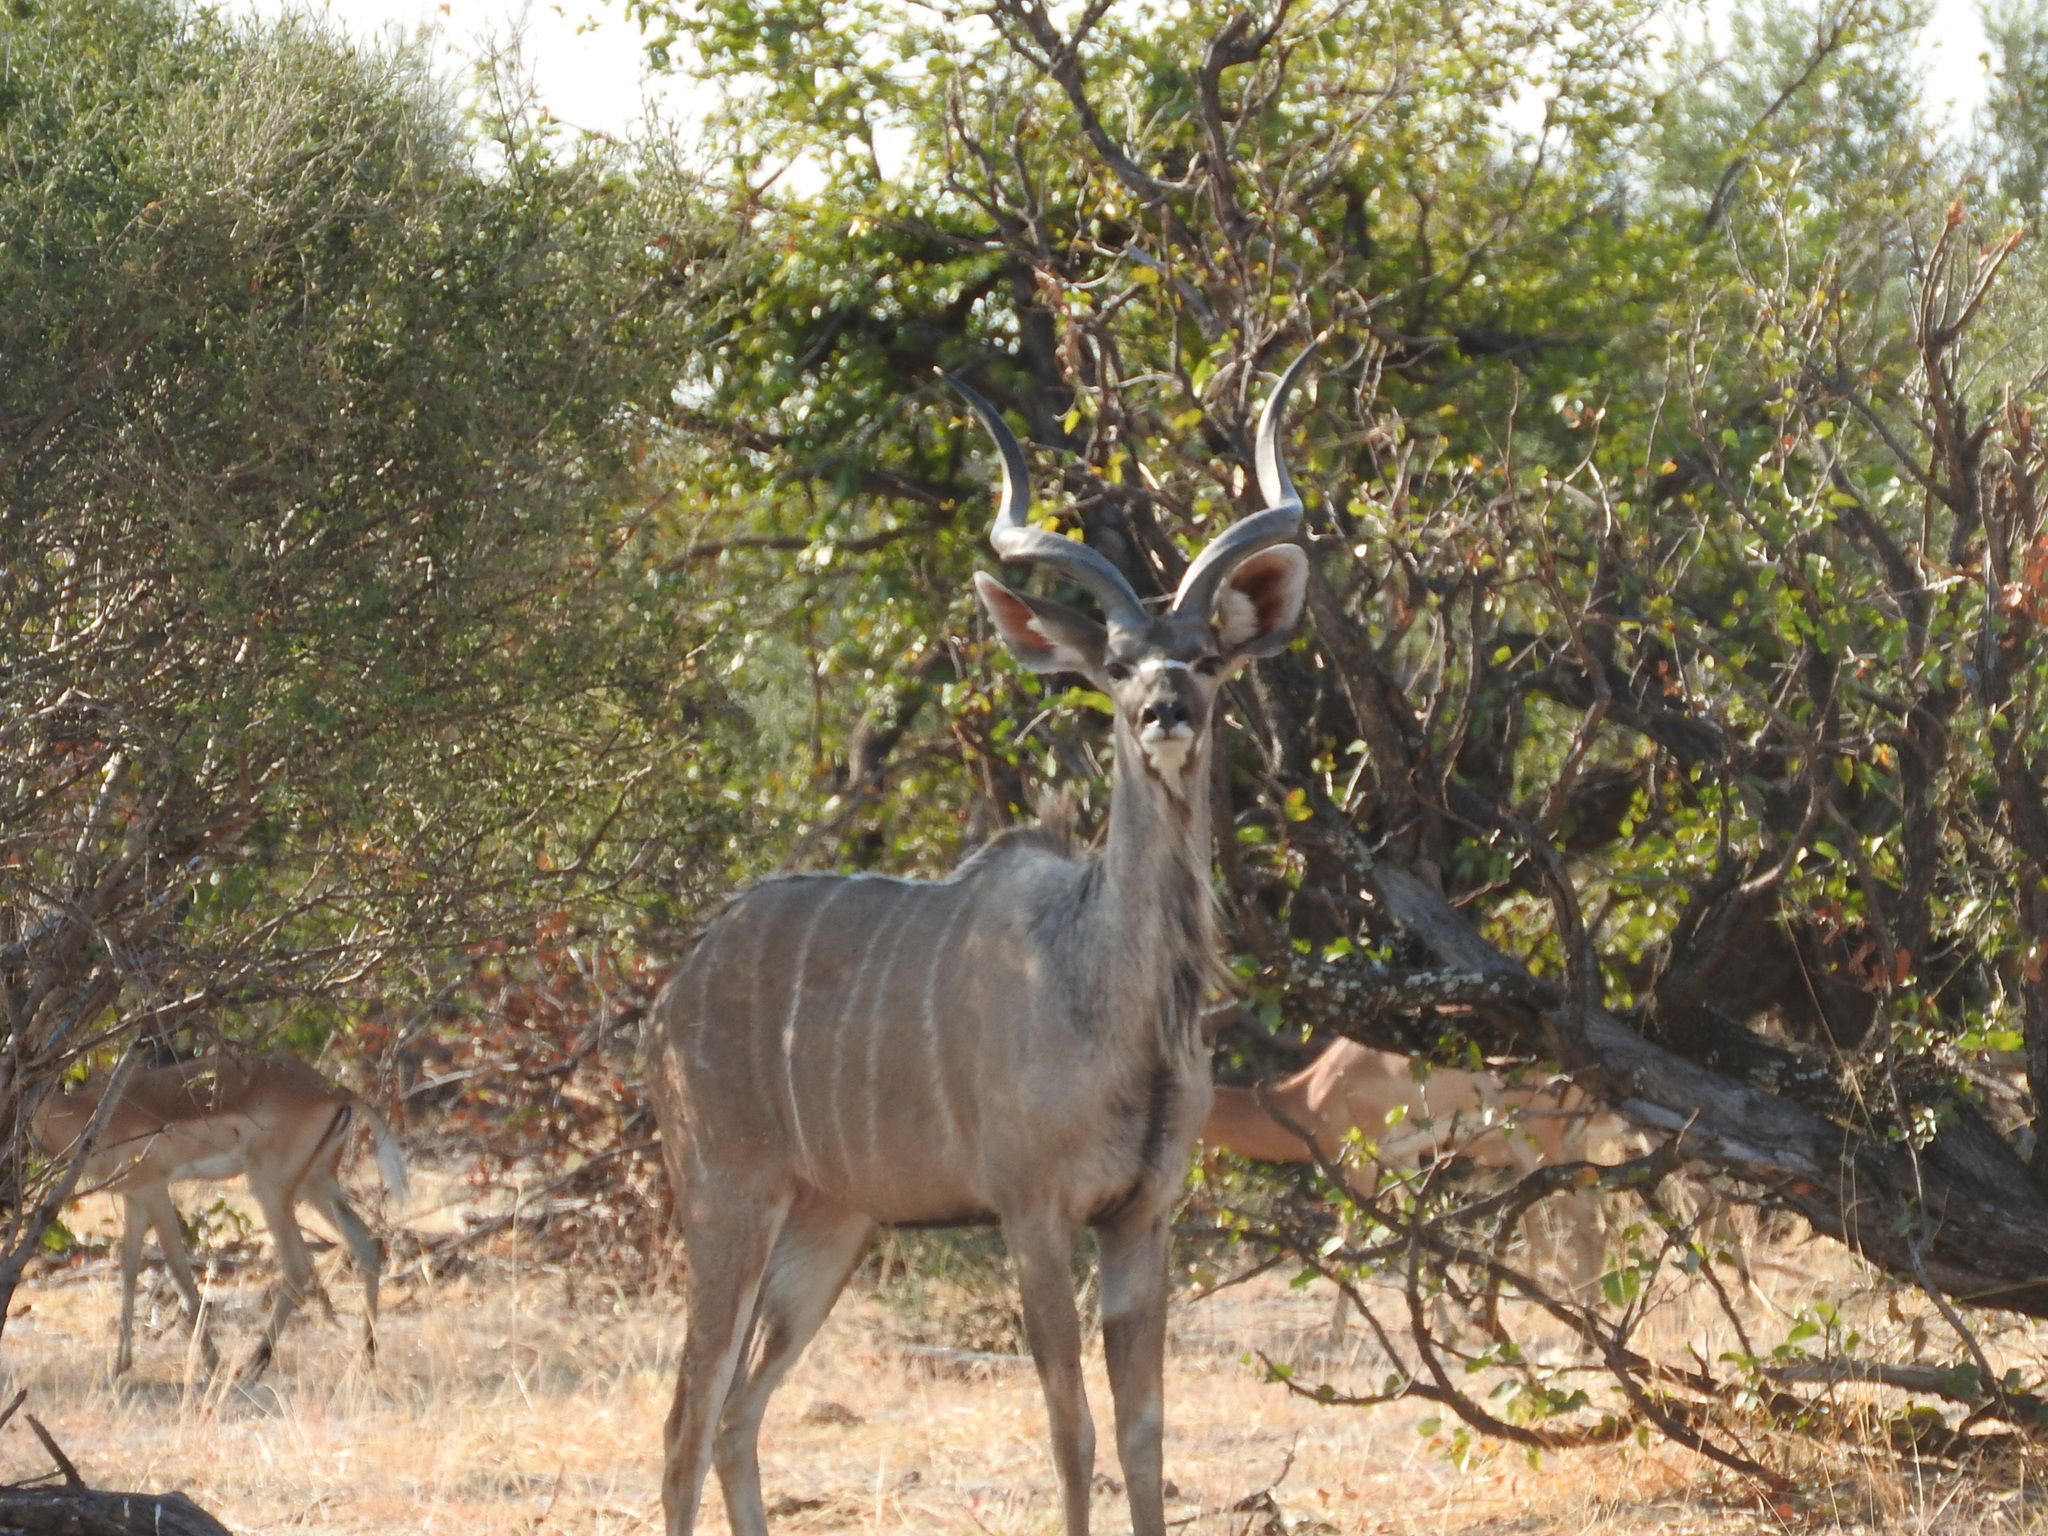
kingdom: Animalia
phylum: Chordata
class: Mammalia
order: Artiodactyla
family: Bovidae
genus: Tragelaphus
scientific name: Tragelaphus strepsiceros
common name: Greater kudu
